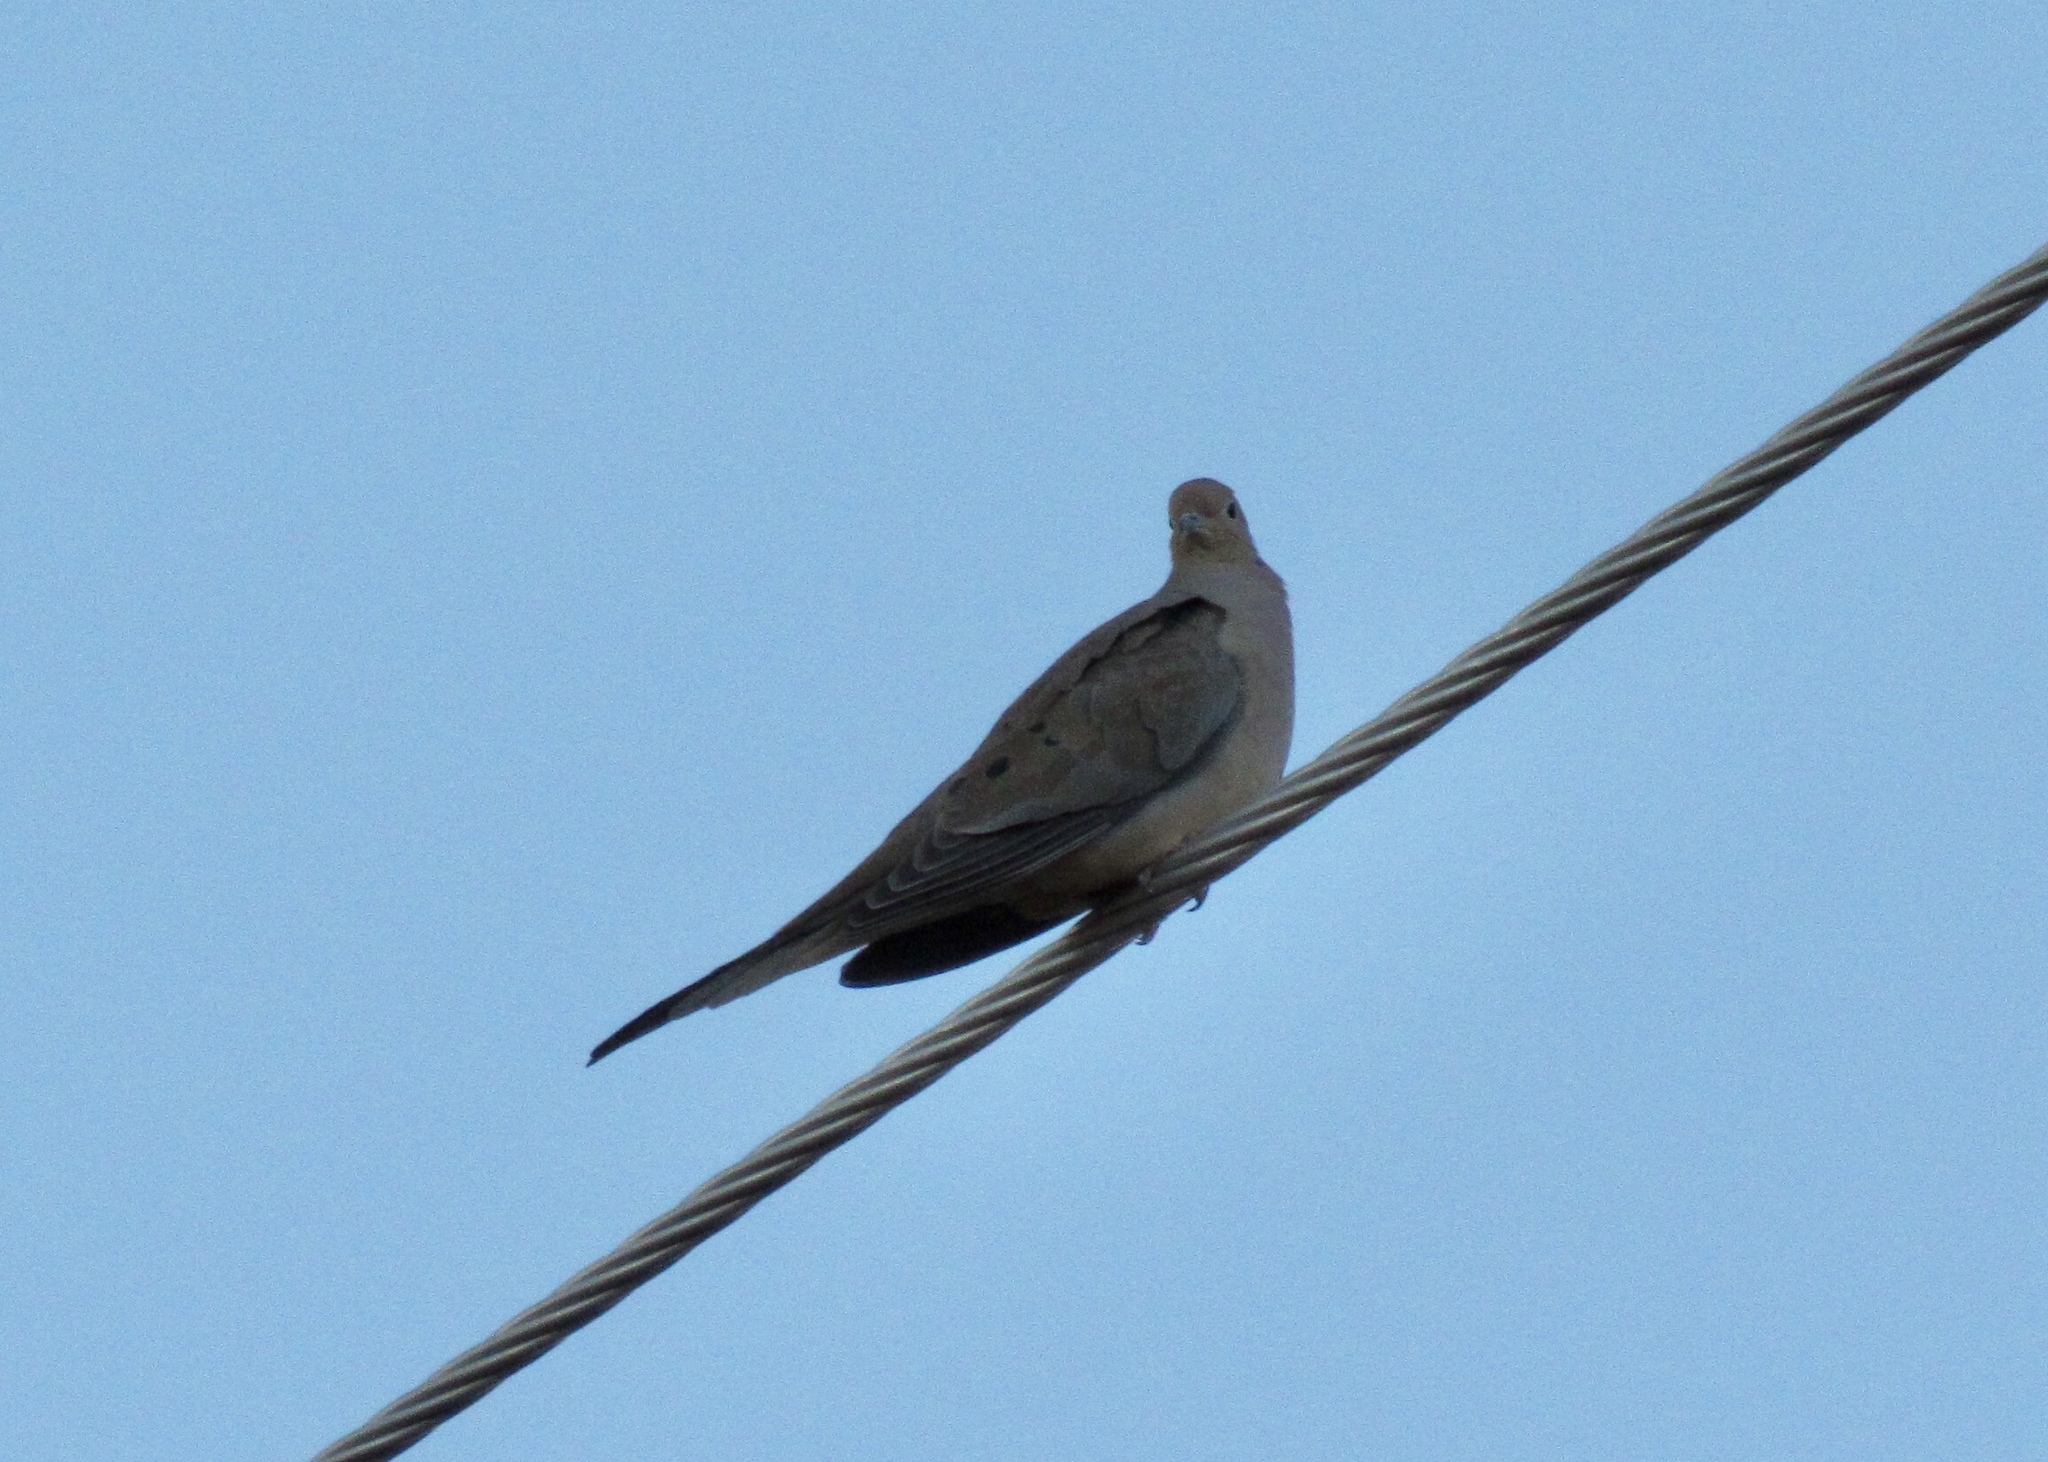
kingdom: Animalia
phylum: Chordata
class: Aves
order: Columbiformes
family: Columbidae
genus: Zenaida
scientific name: Zenaida macroura
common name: Mourning dove
